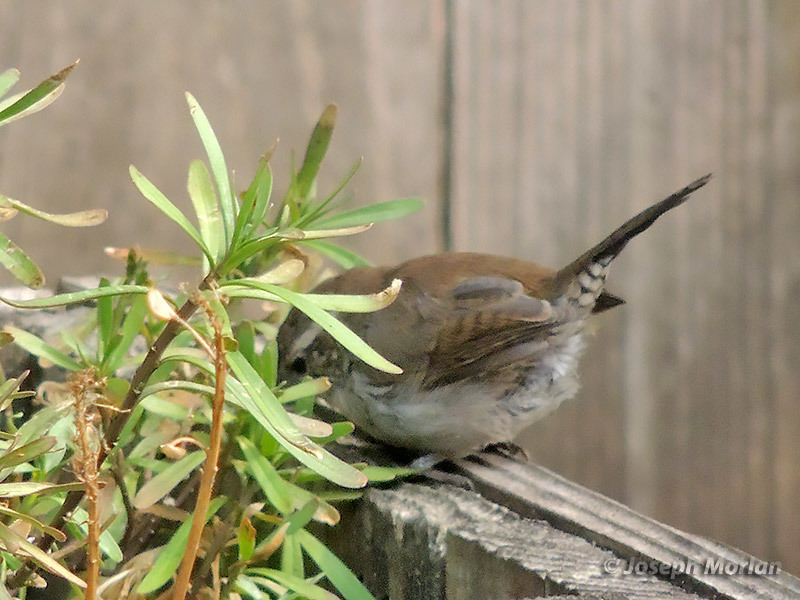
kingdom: Animalia
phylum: Chordata
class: Aves
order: Passeriformes
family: Troglodytidae
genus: Thryomanes
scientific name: Thryomanes bewickii
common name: Bewick's wren
